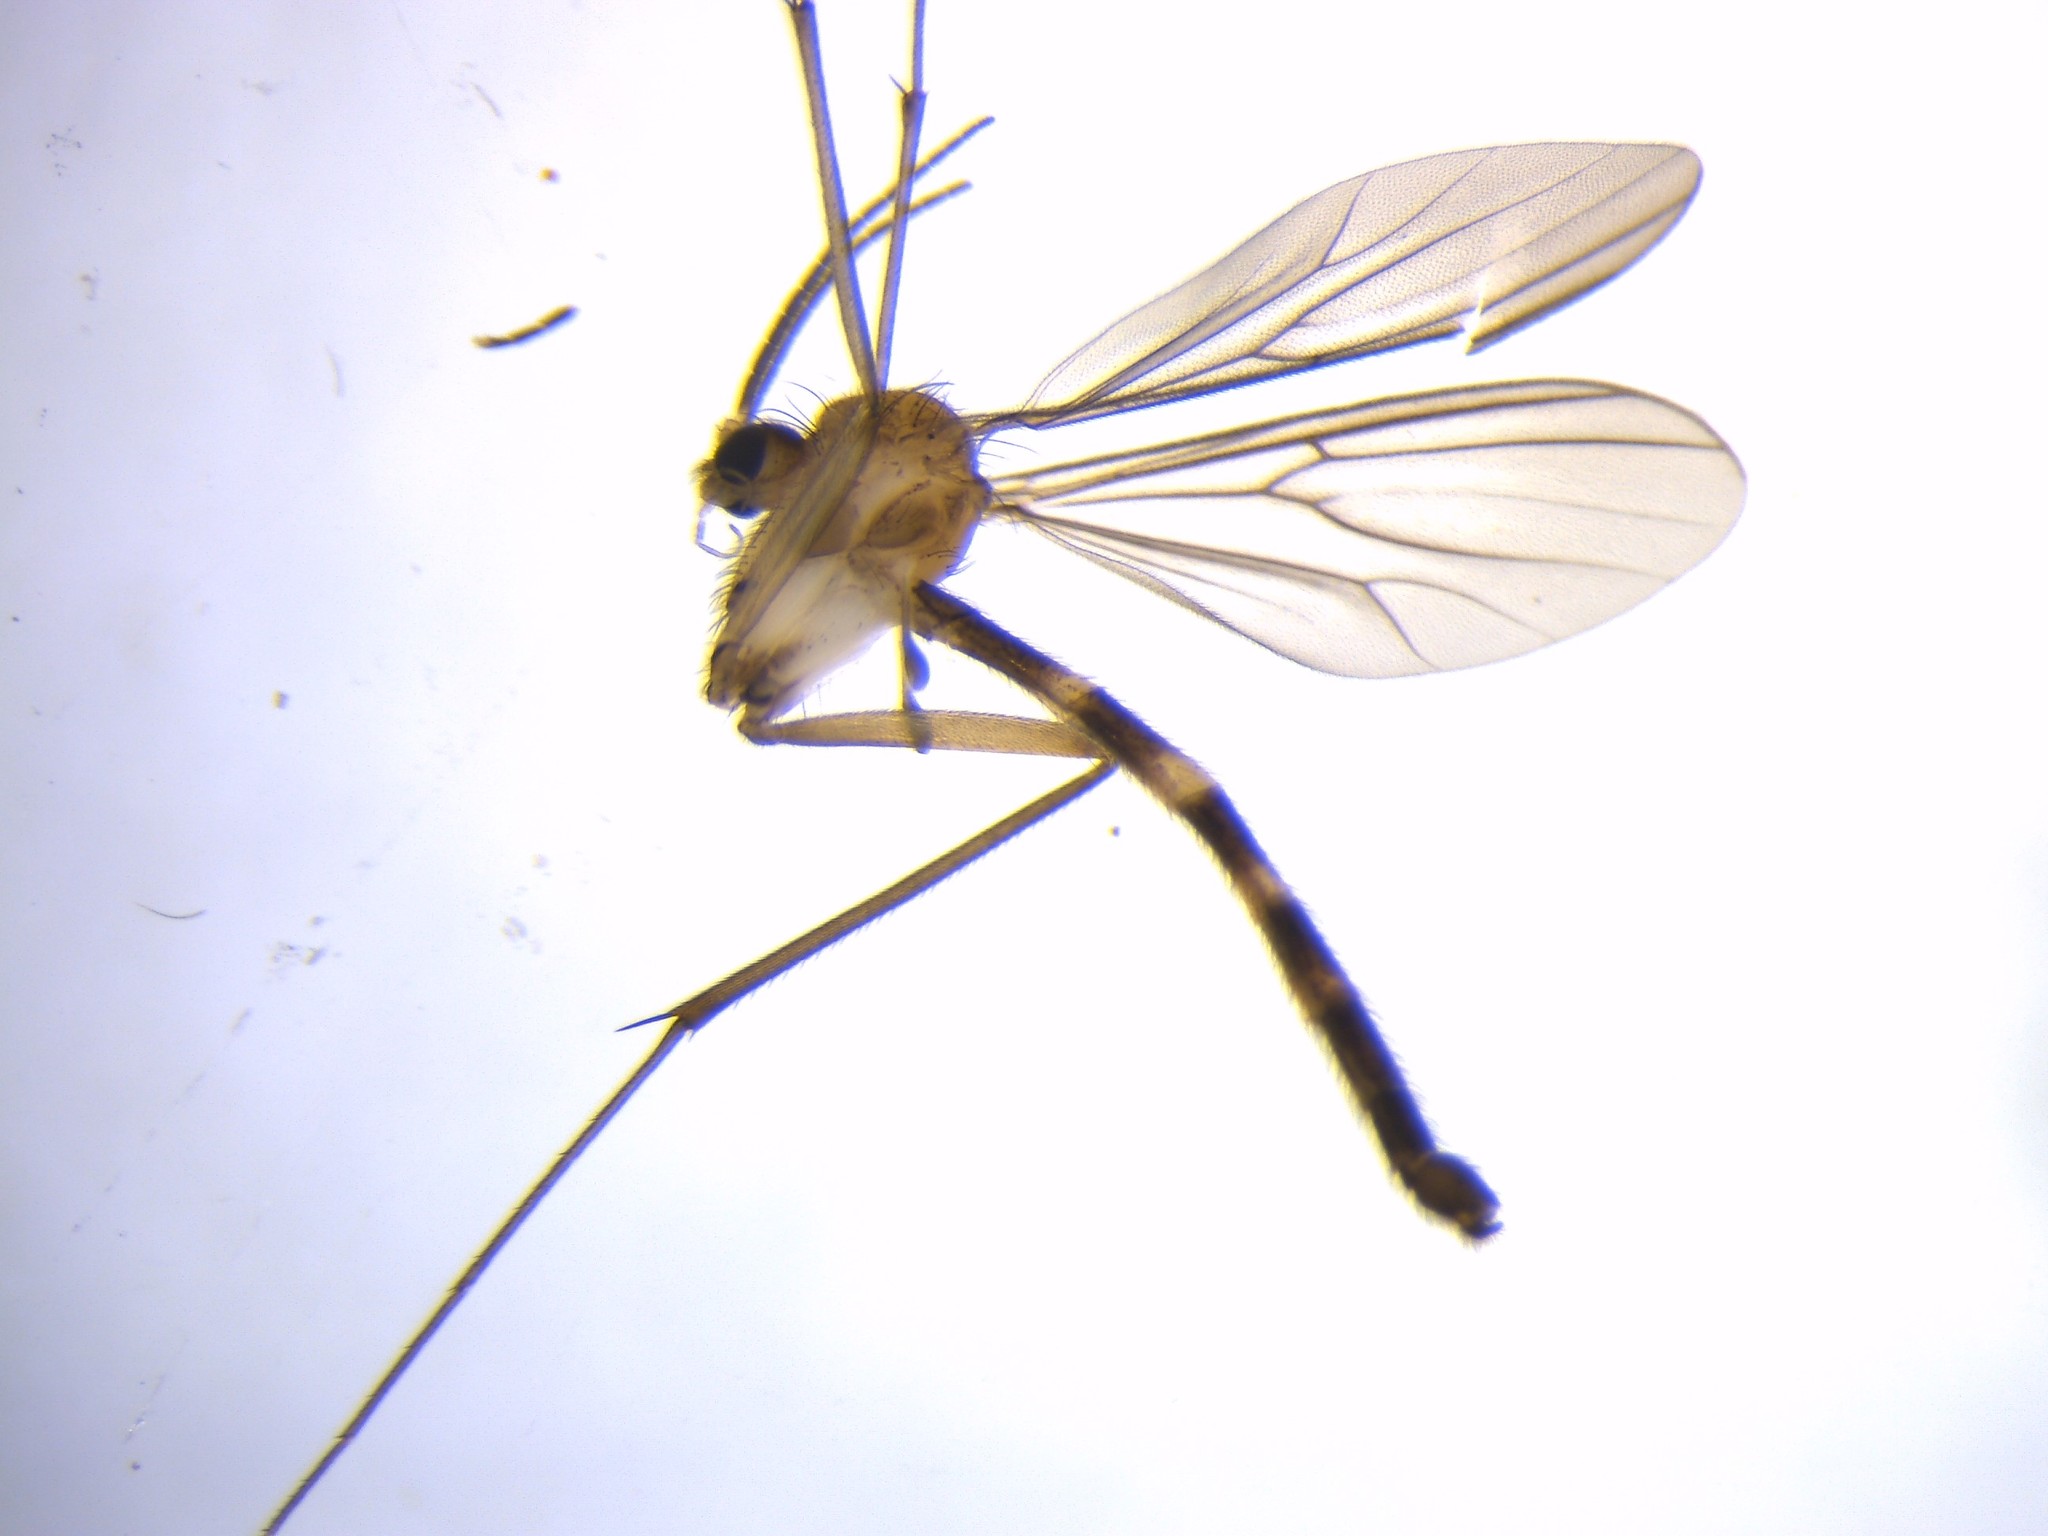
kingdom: Animalia
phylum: Arthropoda
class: Insecta
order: Diptera
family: Mycetophilidae
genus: Exechia
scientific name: Exechia hiemalis
